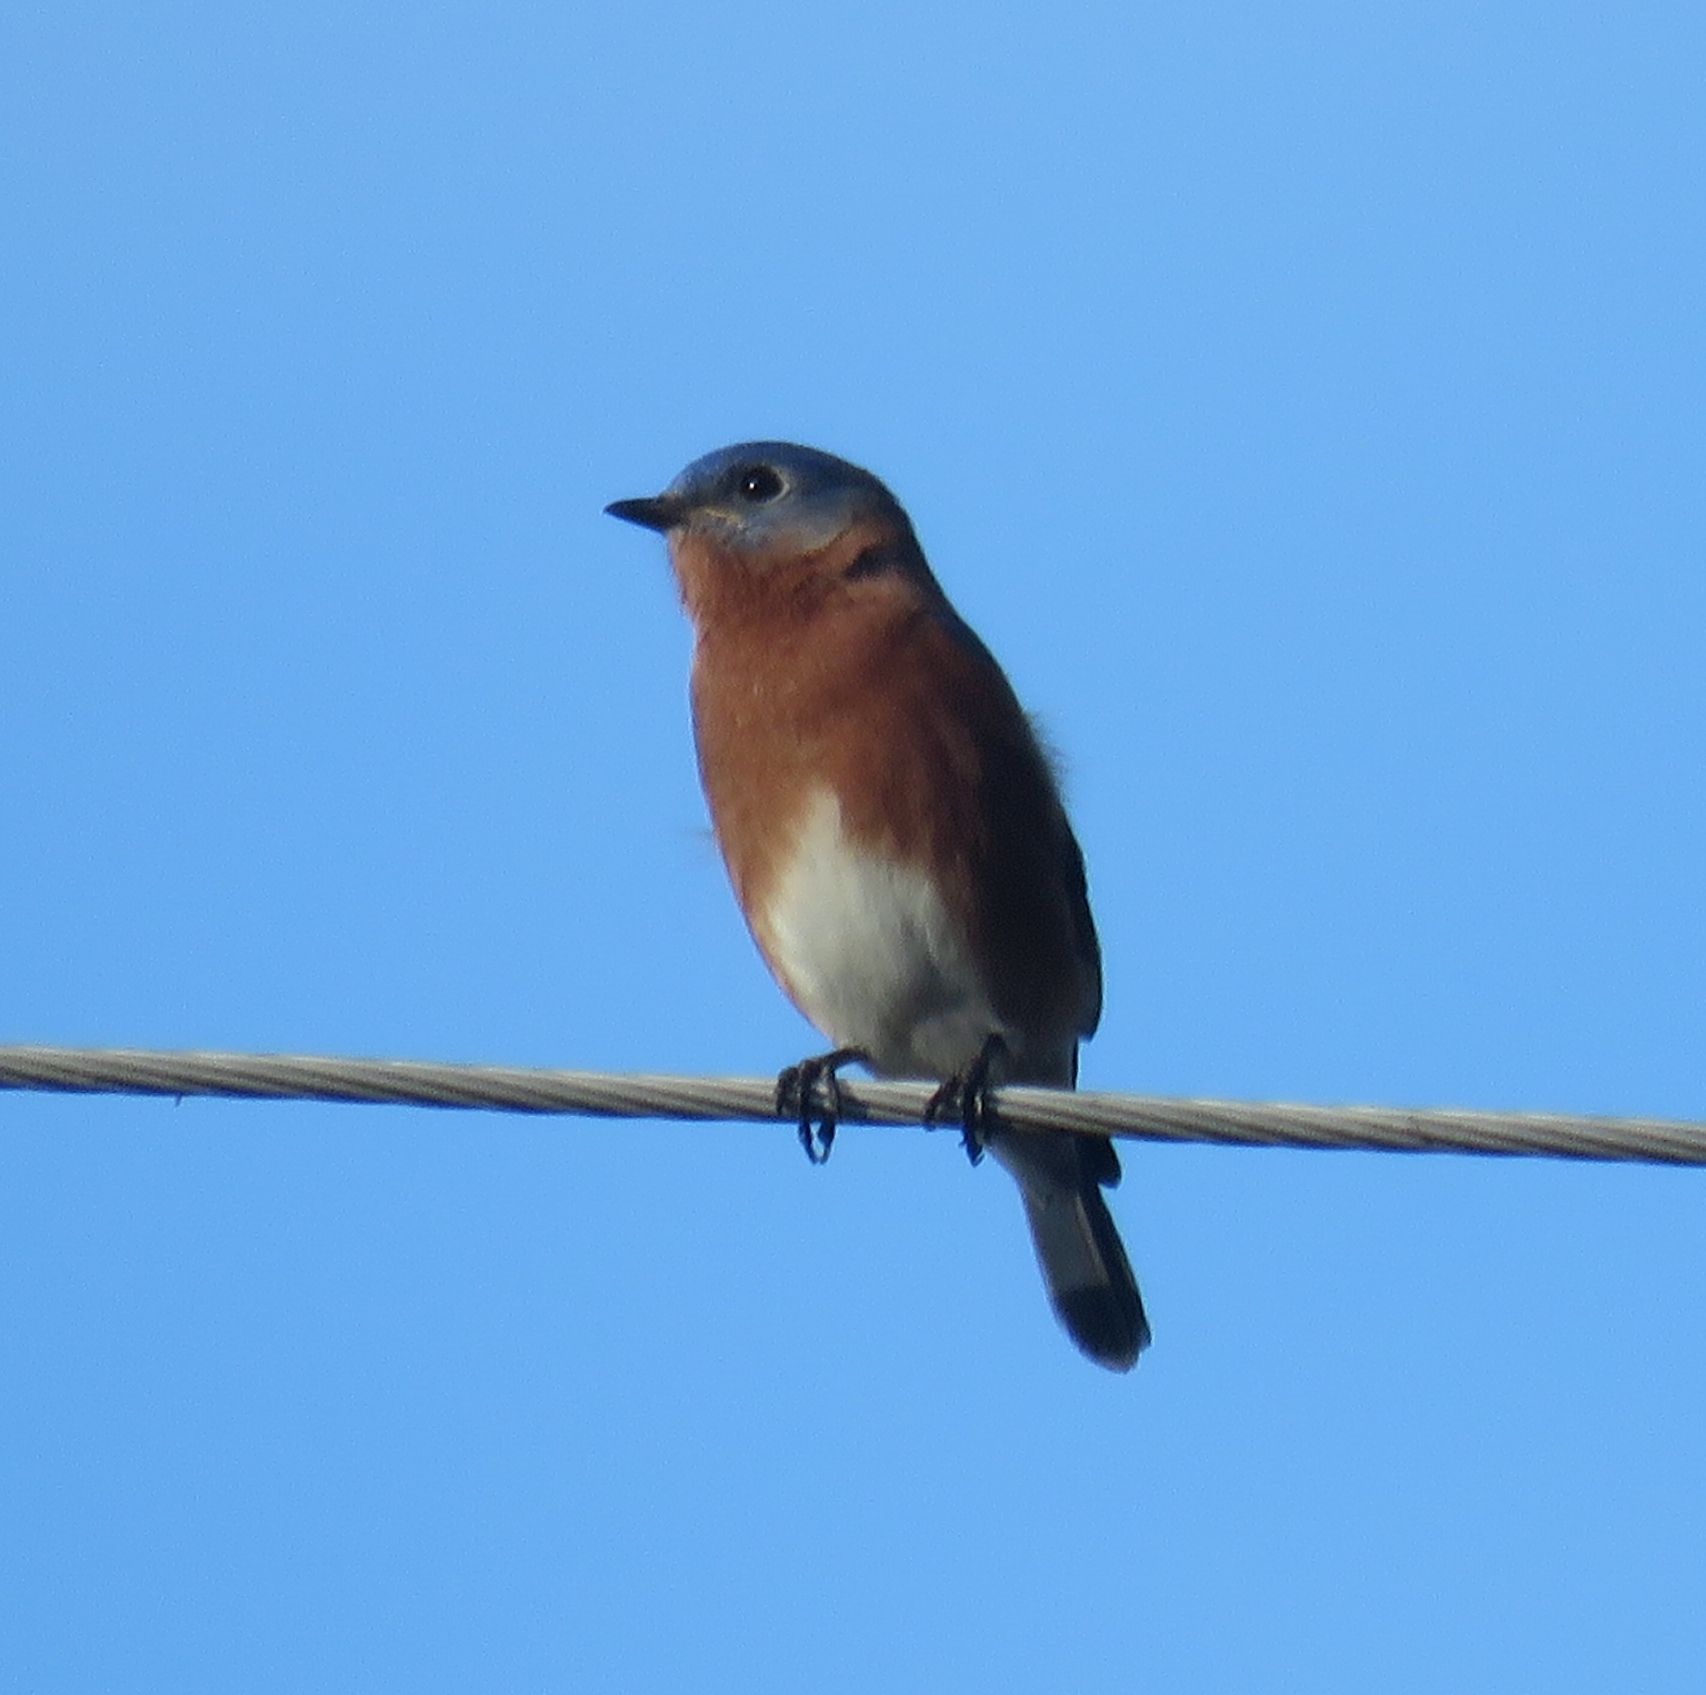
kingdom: Animalia
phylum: Chordata
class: Aves
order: Passeriformes
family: Turdidae
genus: Sialia
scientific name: Sialia sialis
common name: Eastern bluebird
